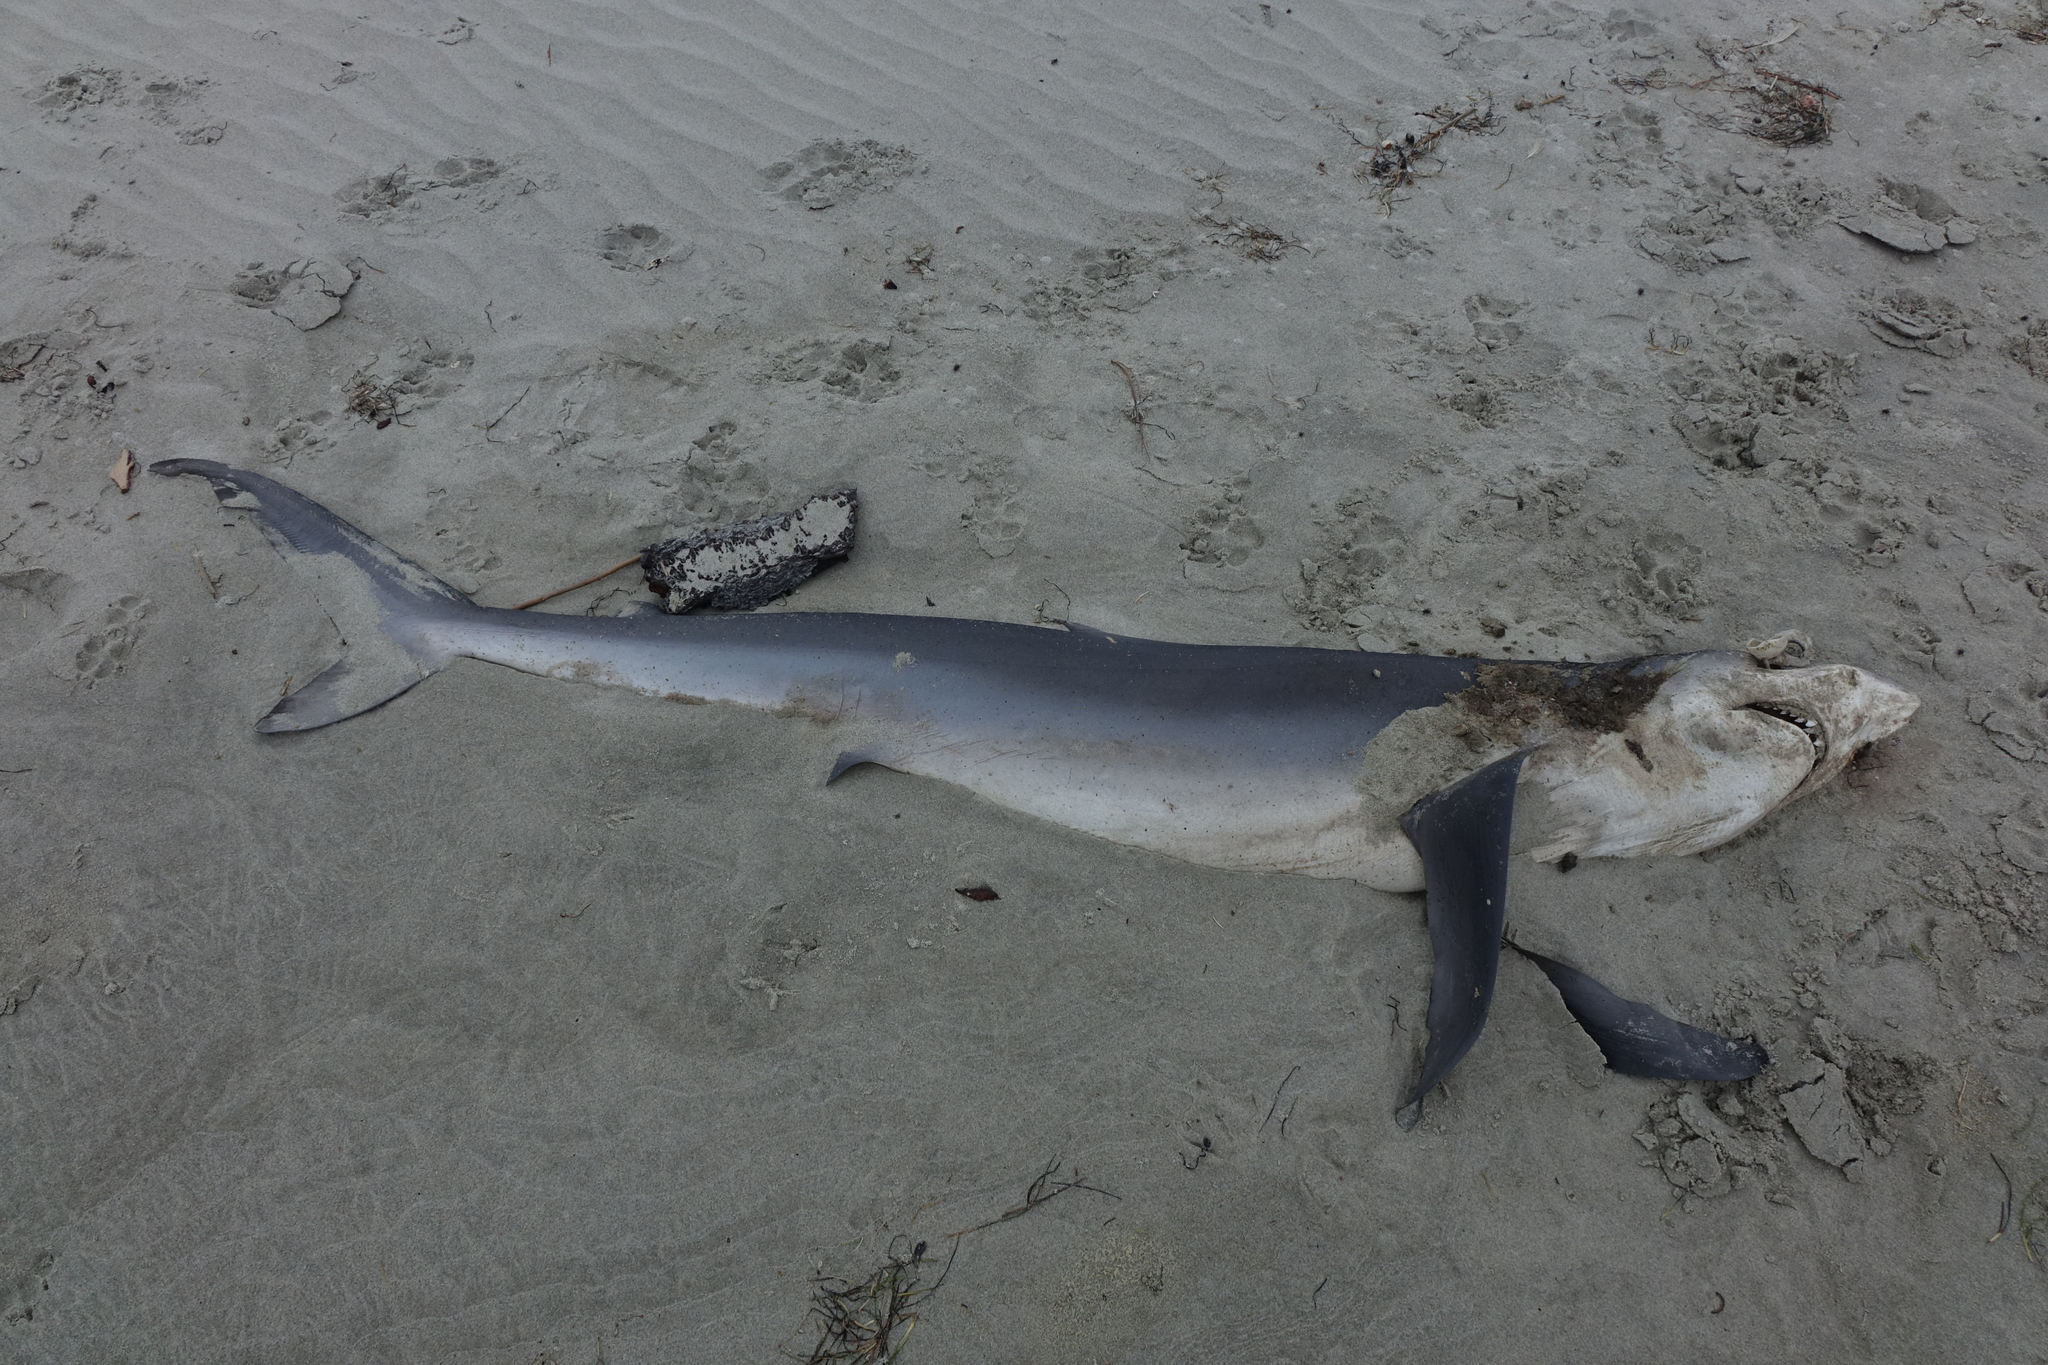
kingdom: Animalia
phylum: Chordata
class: Elasmobranchii
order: Carcharhiniformes
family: Carcharhinidae
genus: Prionace
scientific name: Prionace glauca
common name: Blue shark
